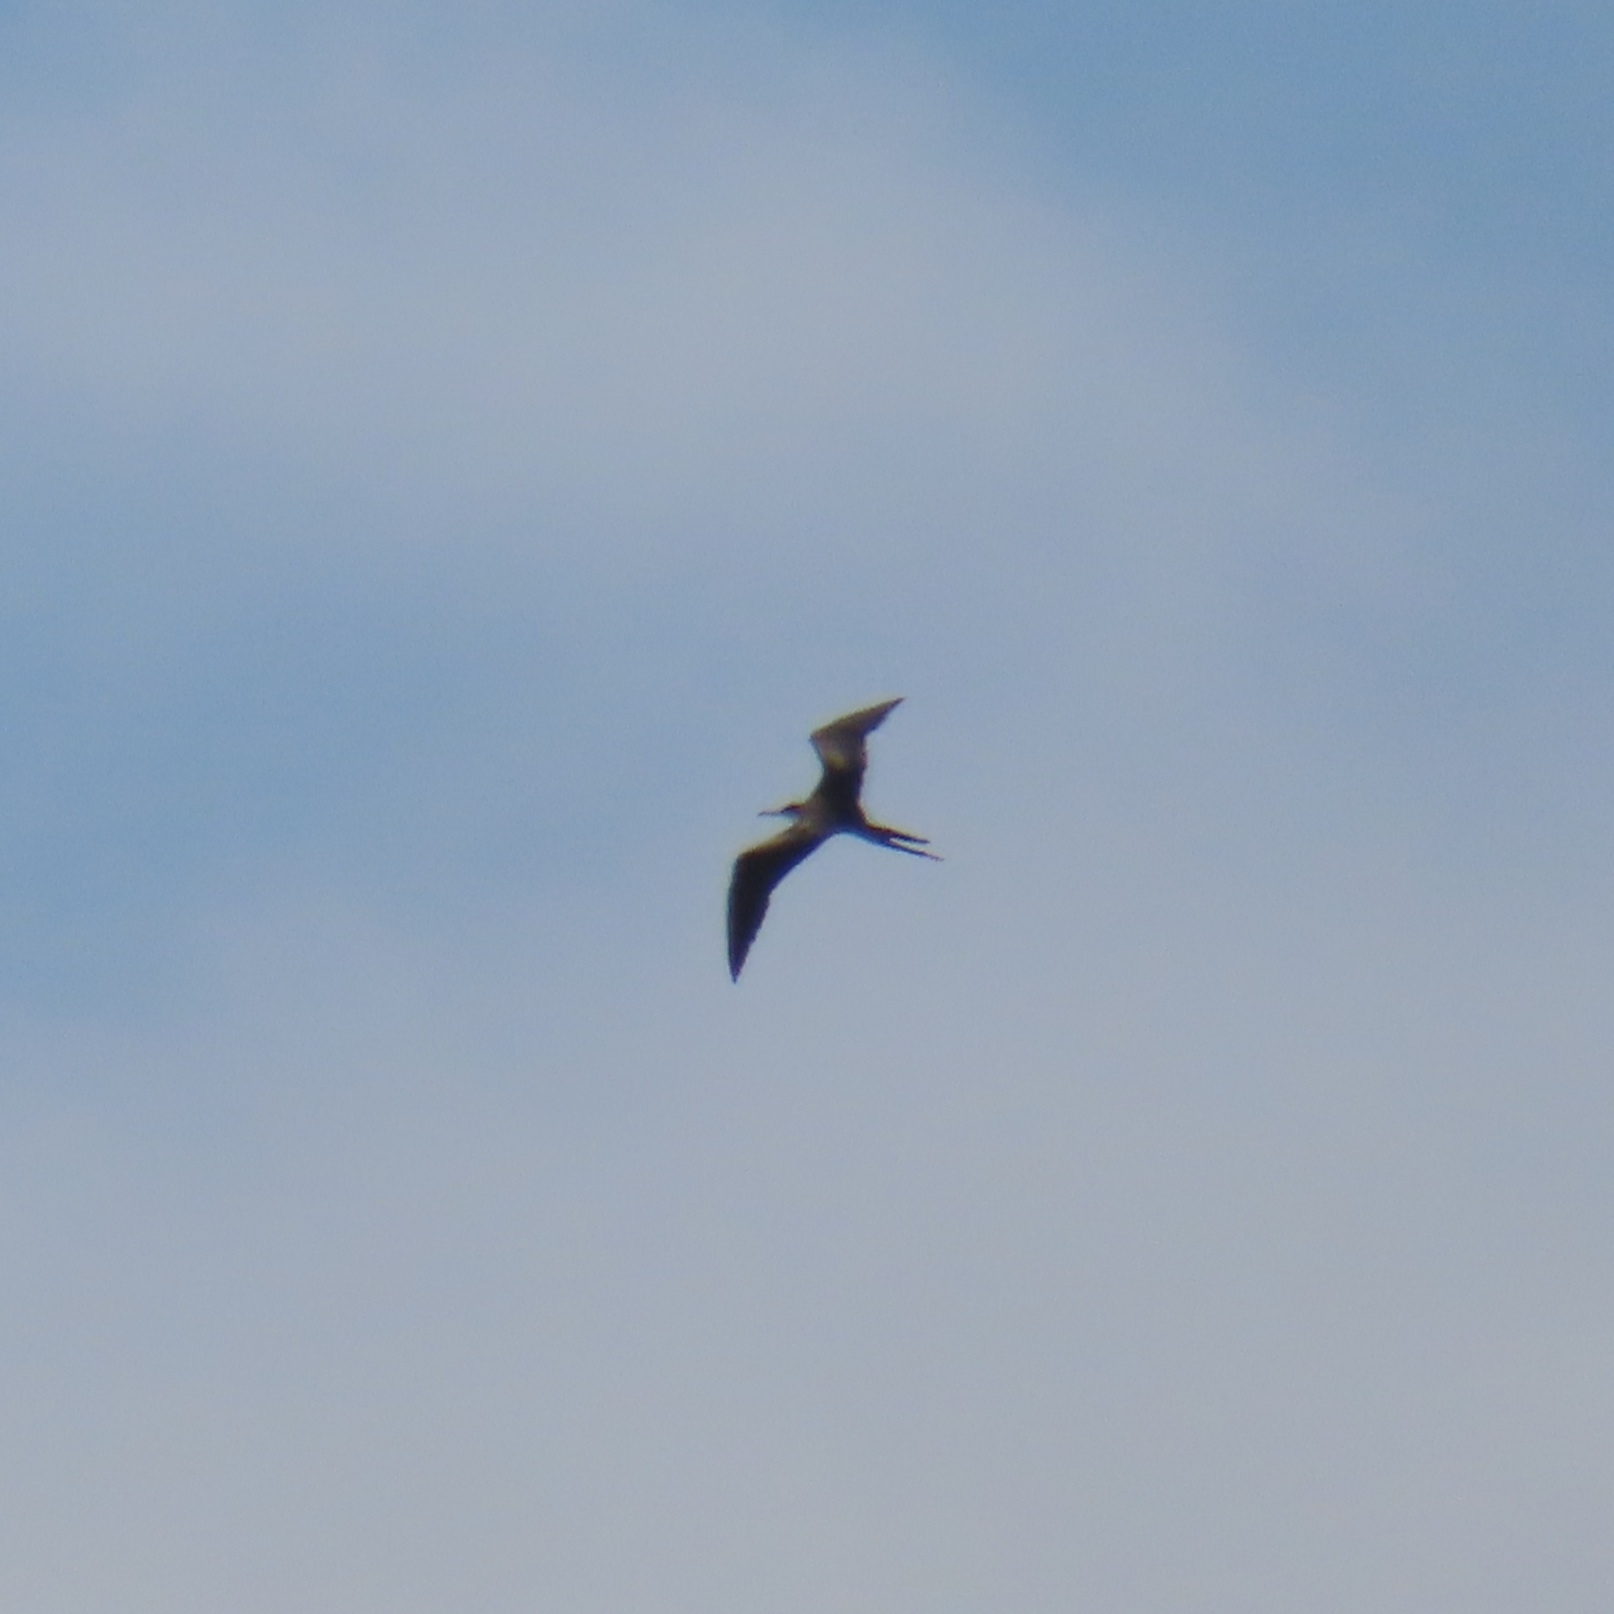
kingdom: Animalia
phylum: Chordata
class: Aves
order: Suliformes
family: Fregatidae
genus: Fregata
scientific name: Fregata magnificens
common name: Magnificent frigatebird
